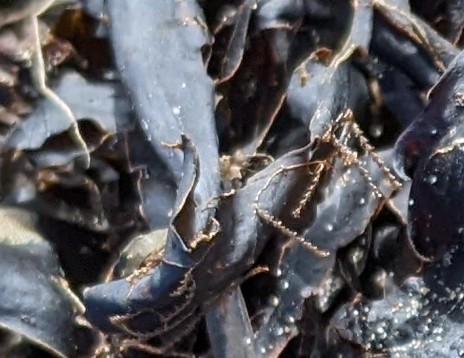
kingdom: Animalia
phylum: Cnidaria
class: Hydrozoa
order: Leptothecata
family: Sertulariidae
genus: Dynamena
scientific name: Dynamena pumila
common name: Sea oak
